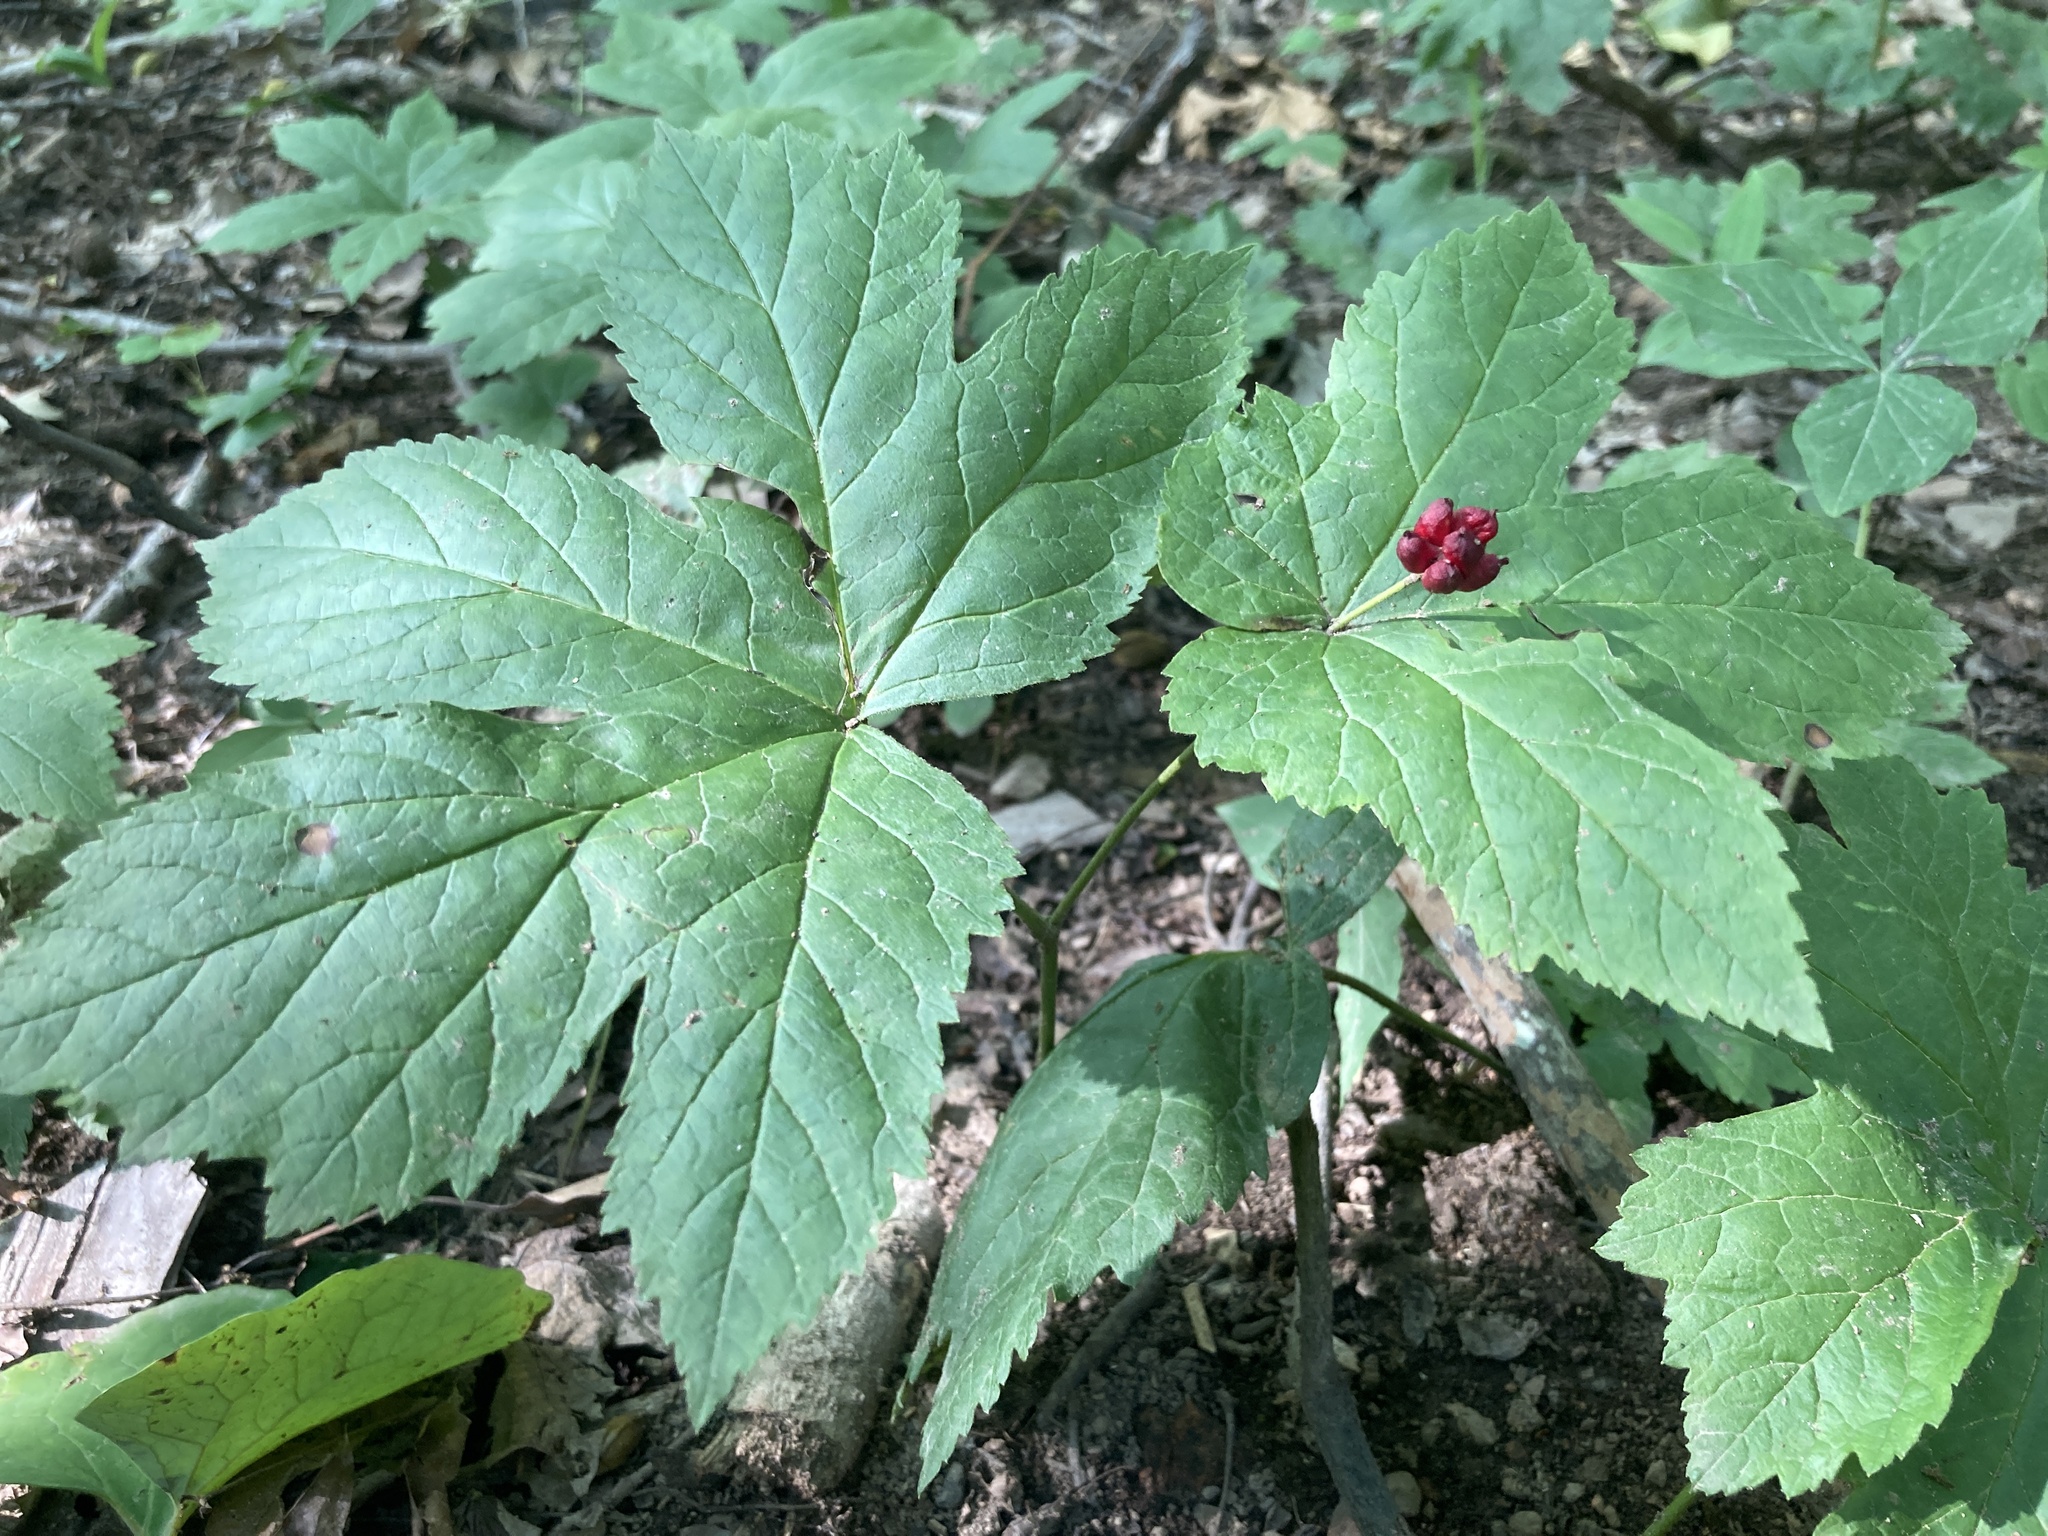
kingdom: Plantae
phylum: Tracheophyta
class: Magnoliopsida
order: Ranunculales
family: Ranunculaceae
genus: Hydrastis
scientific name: Hydrastis canadensis
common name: Goldenseal
